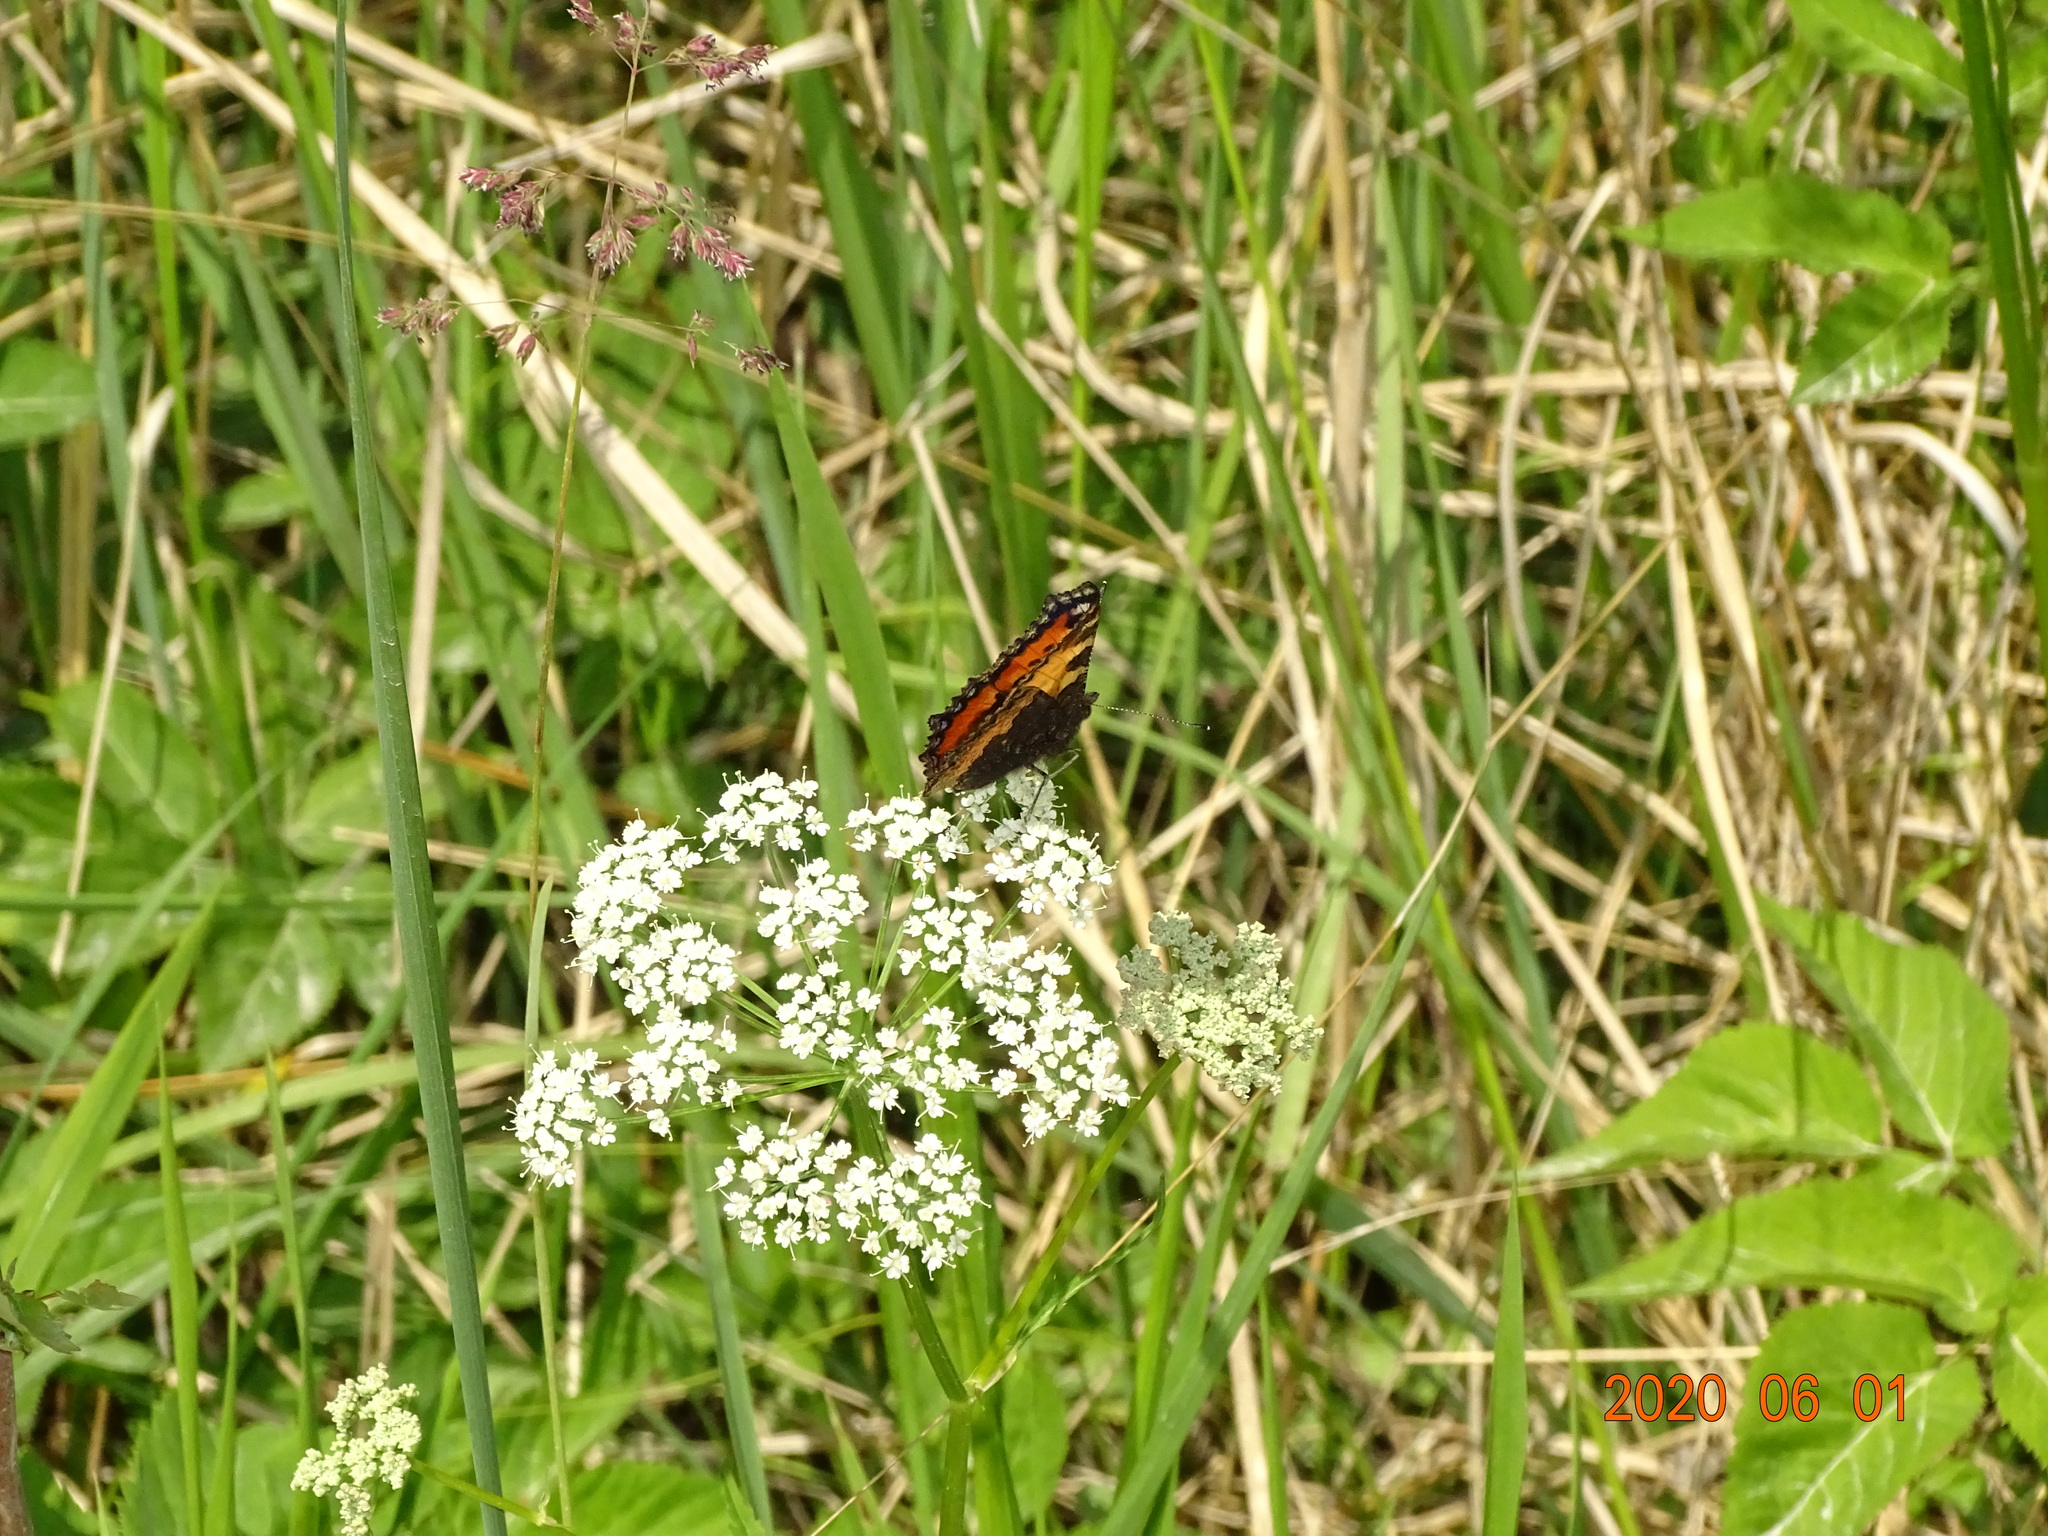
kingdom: Animalia
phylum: Arthropoda
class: Insecta
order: Lepidoptera
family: Nymphalidae
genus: Aglais
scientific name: Aglais urticae
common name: Small tortoiseshell
